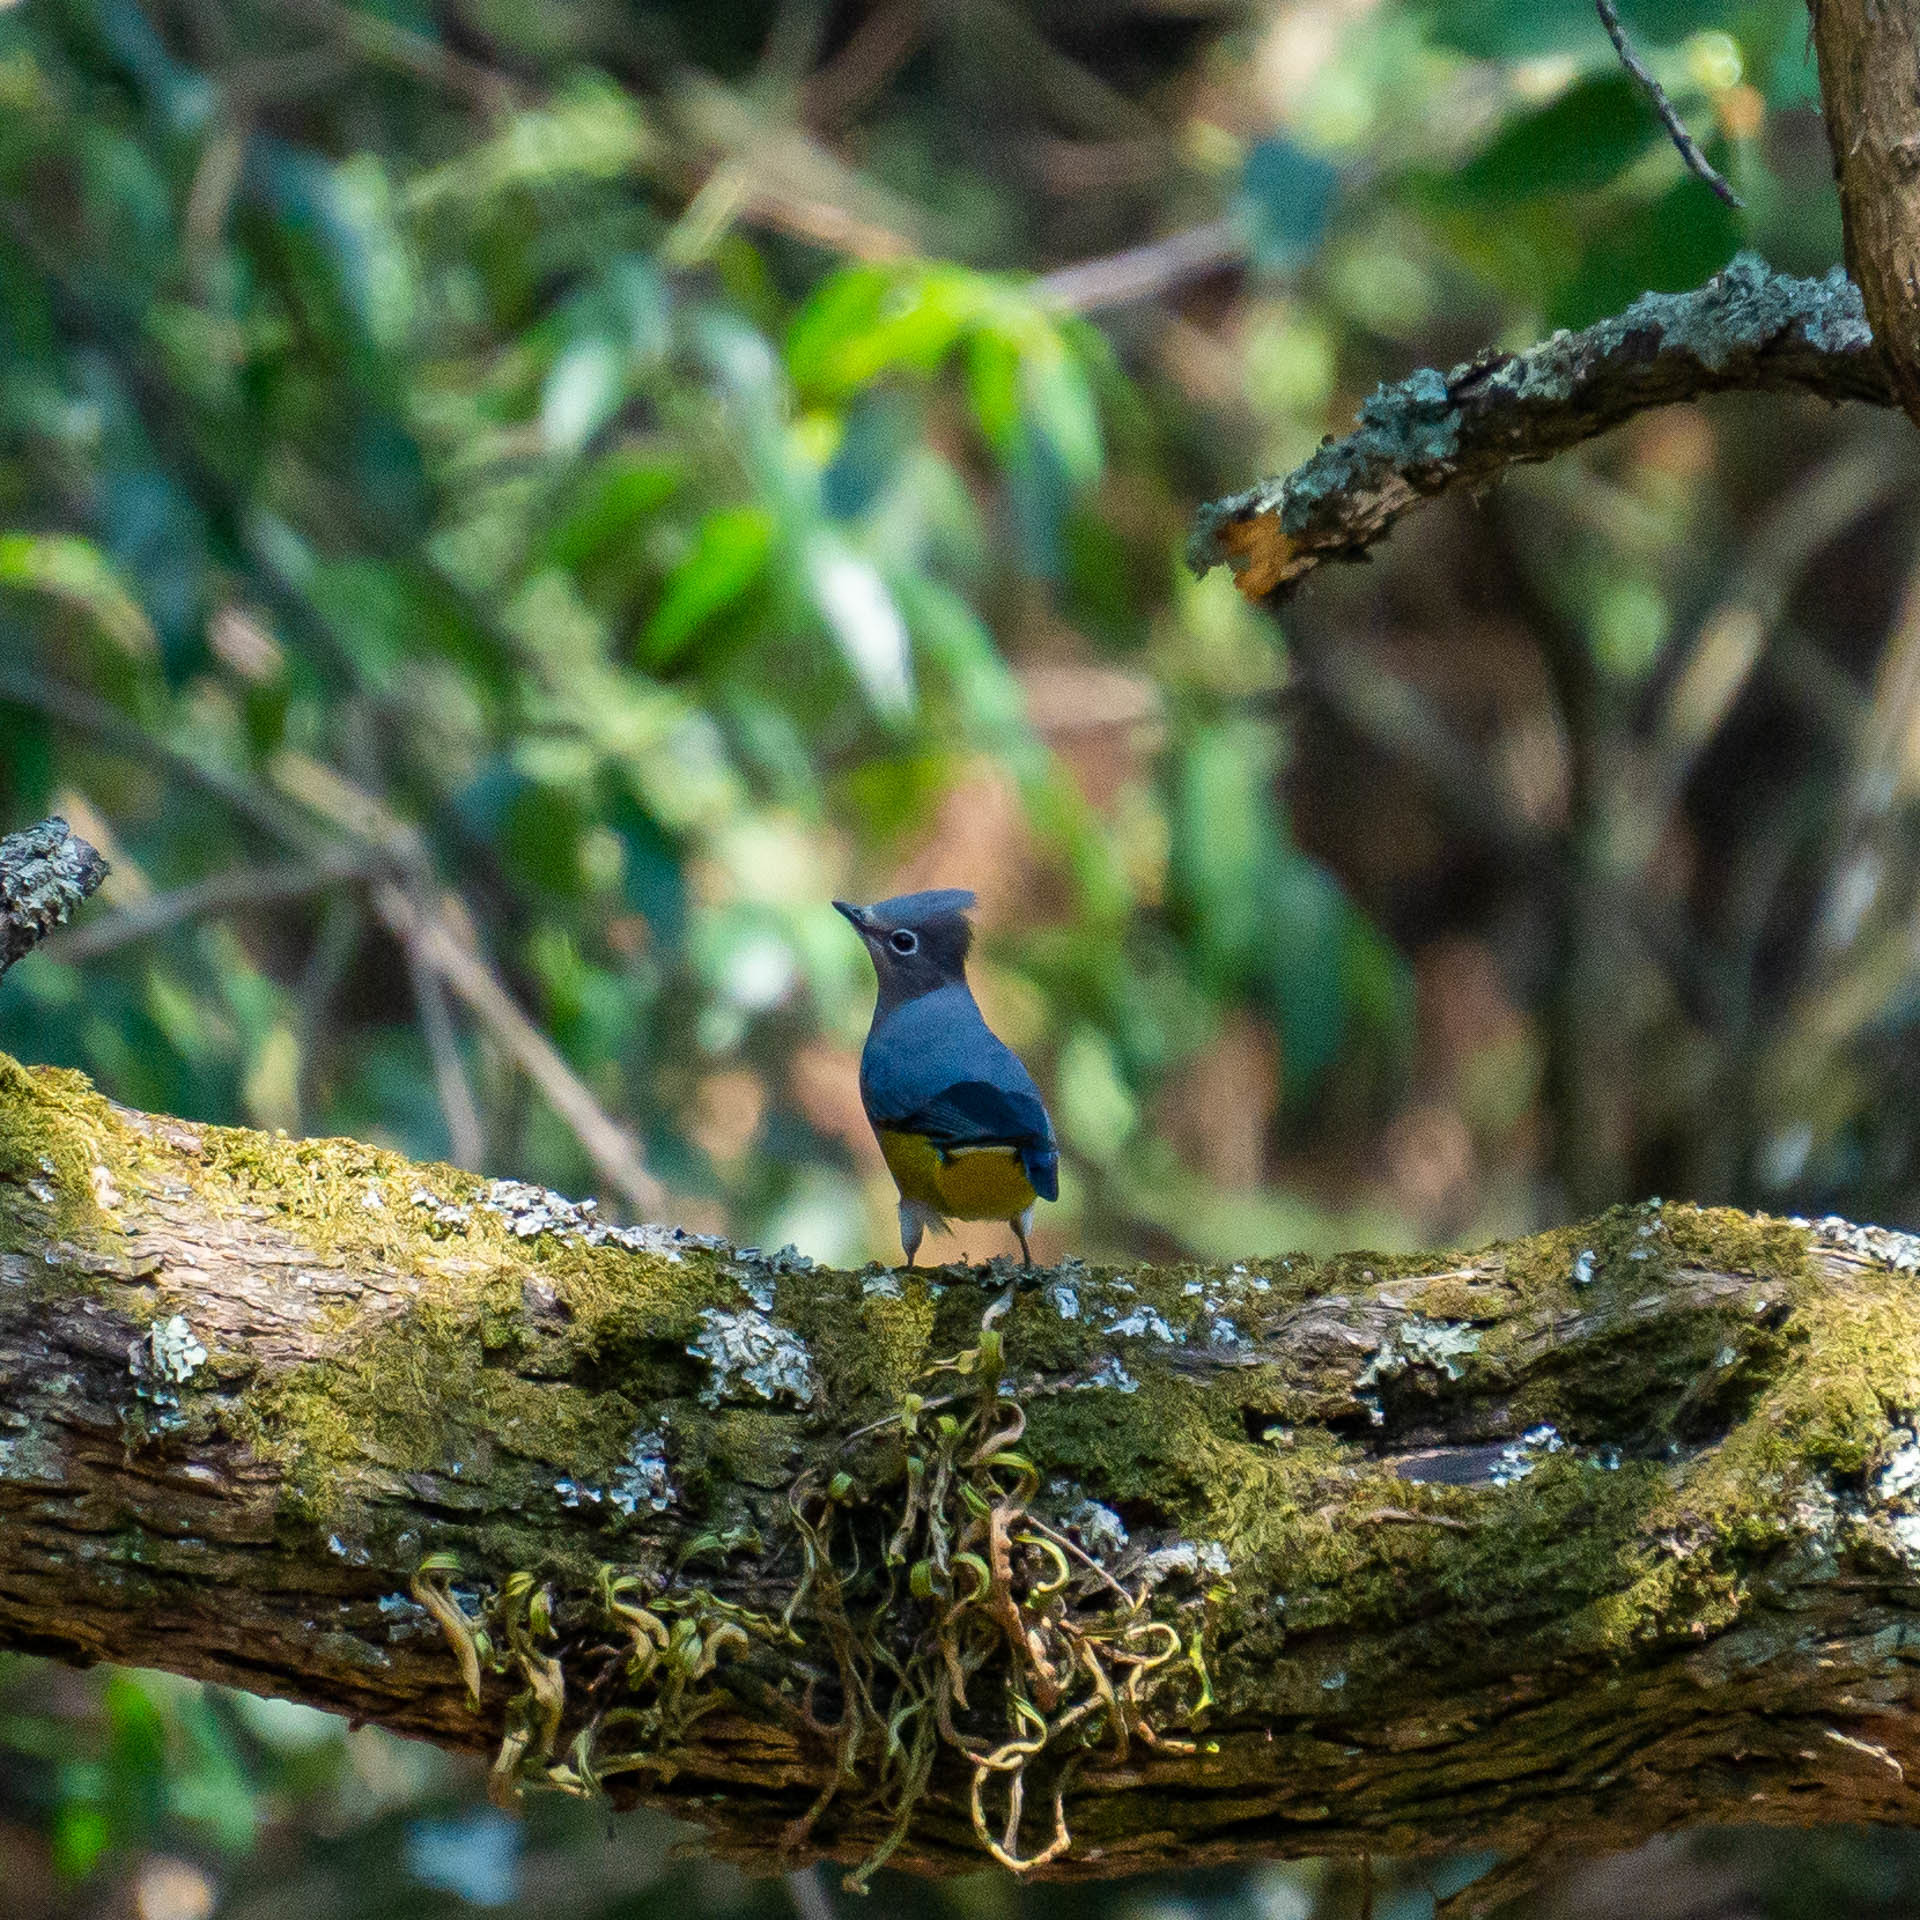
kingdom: Animalia
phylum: Chordata
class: Aves
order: Passeriformes
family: Ptilogonatidae
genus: Ptilogonys
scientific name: Ptilogonys cinereus
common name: Gray silky-flycatcher
